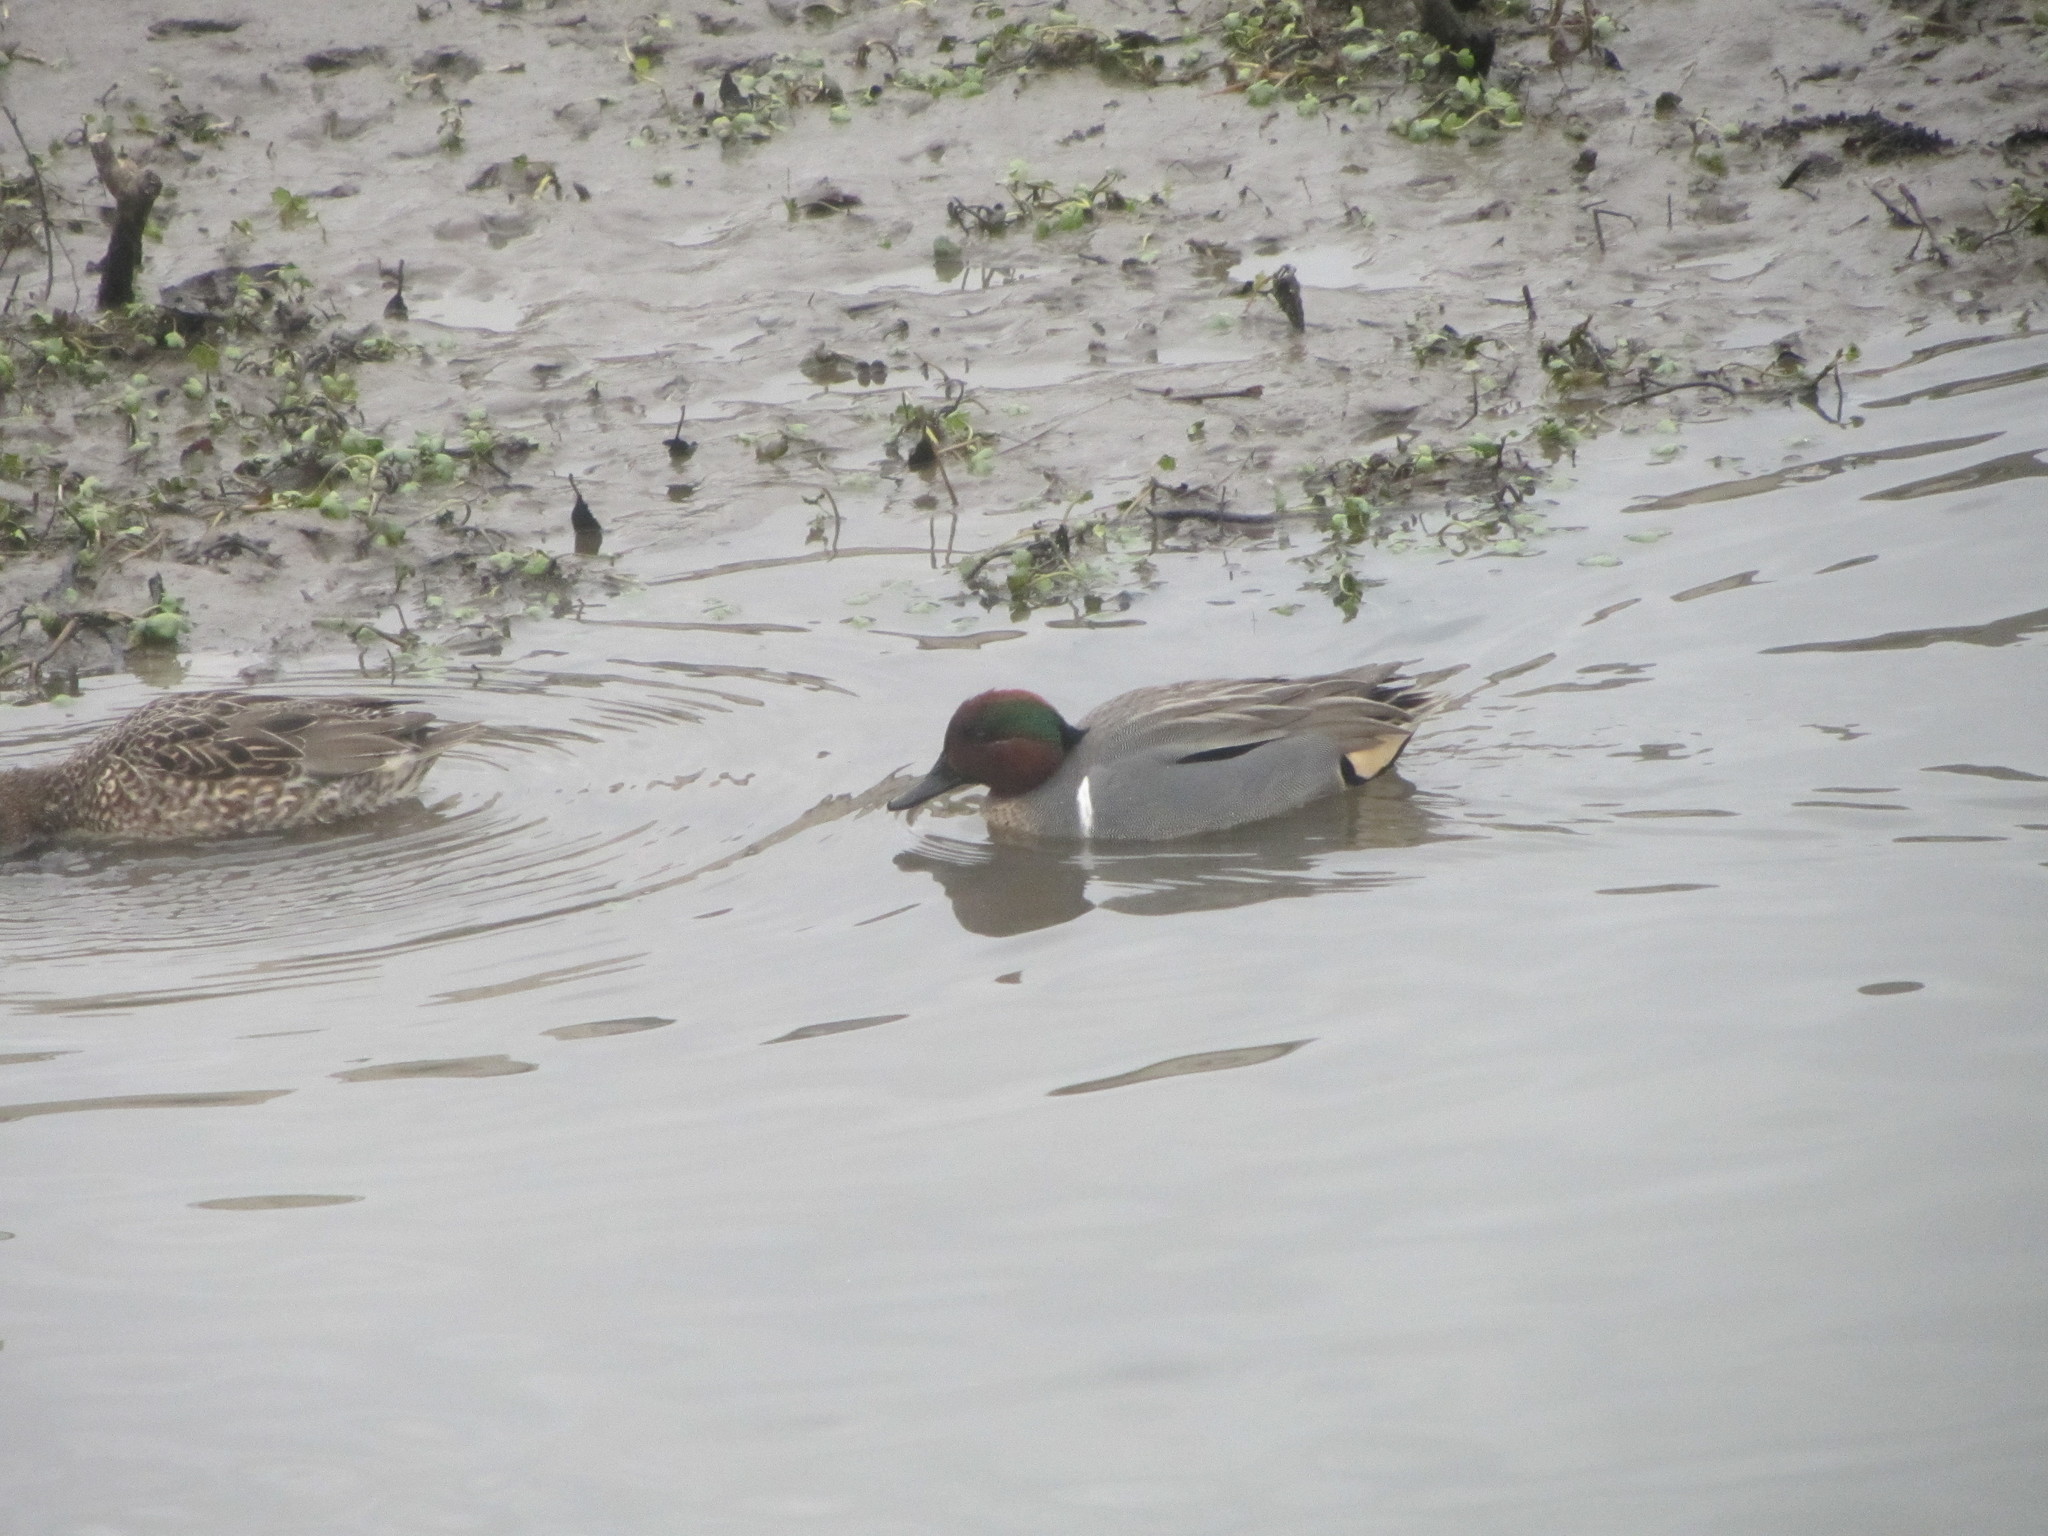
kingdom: Animalia
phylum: Chordata
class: Aves
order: Anseriformes
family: Anatidae
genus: Anas
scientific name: Anas crecca
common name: Eurasian teal
